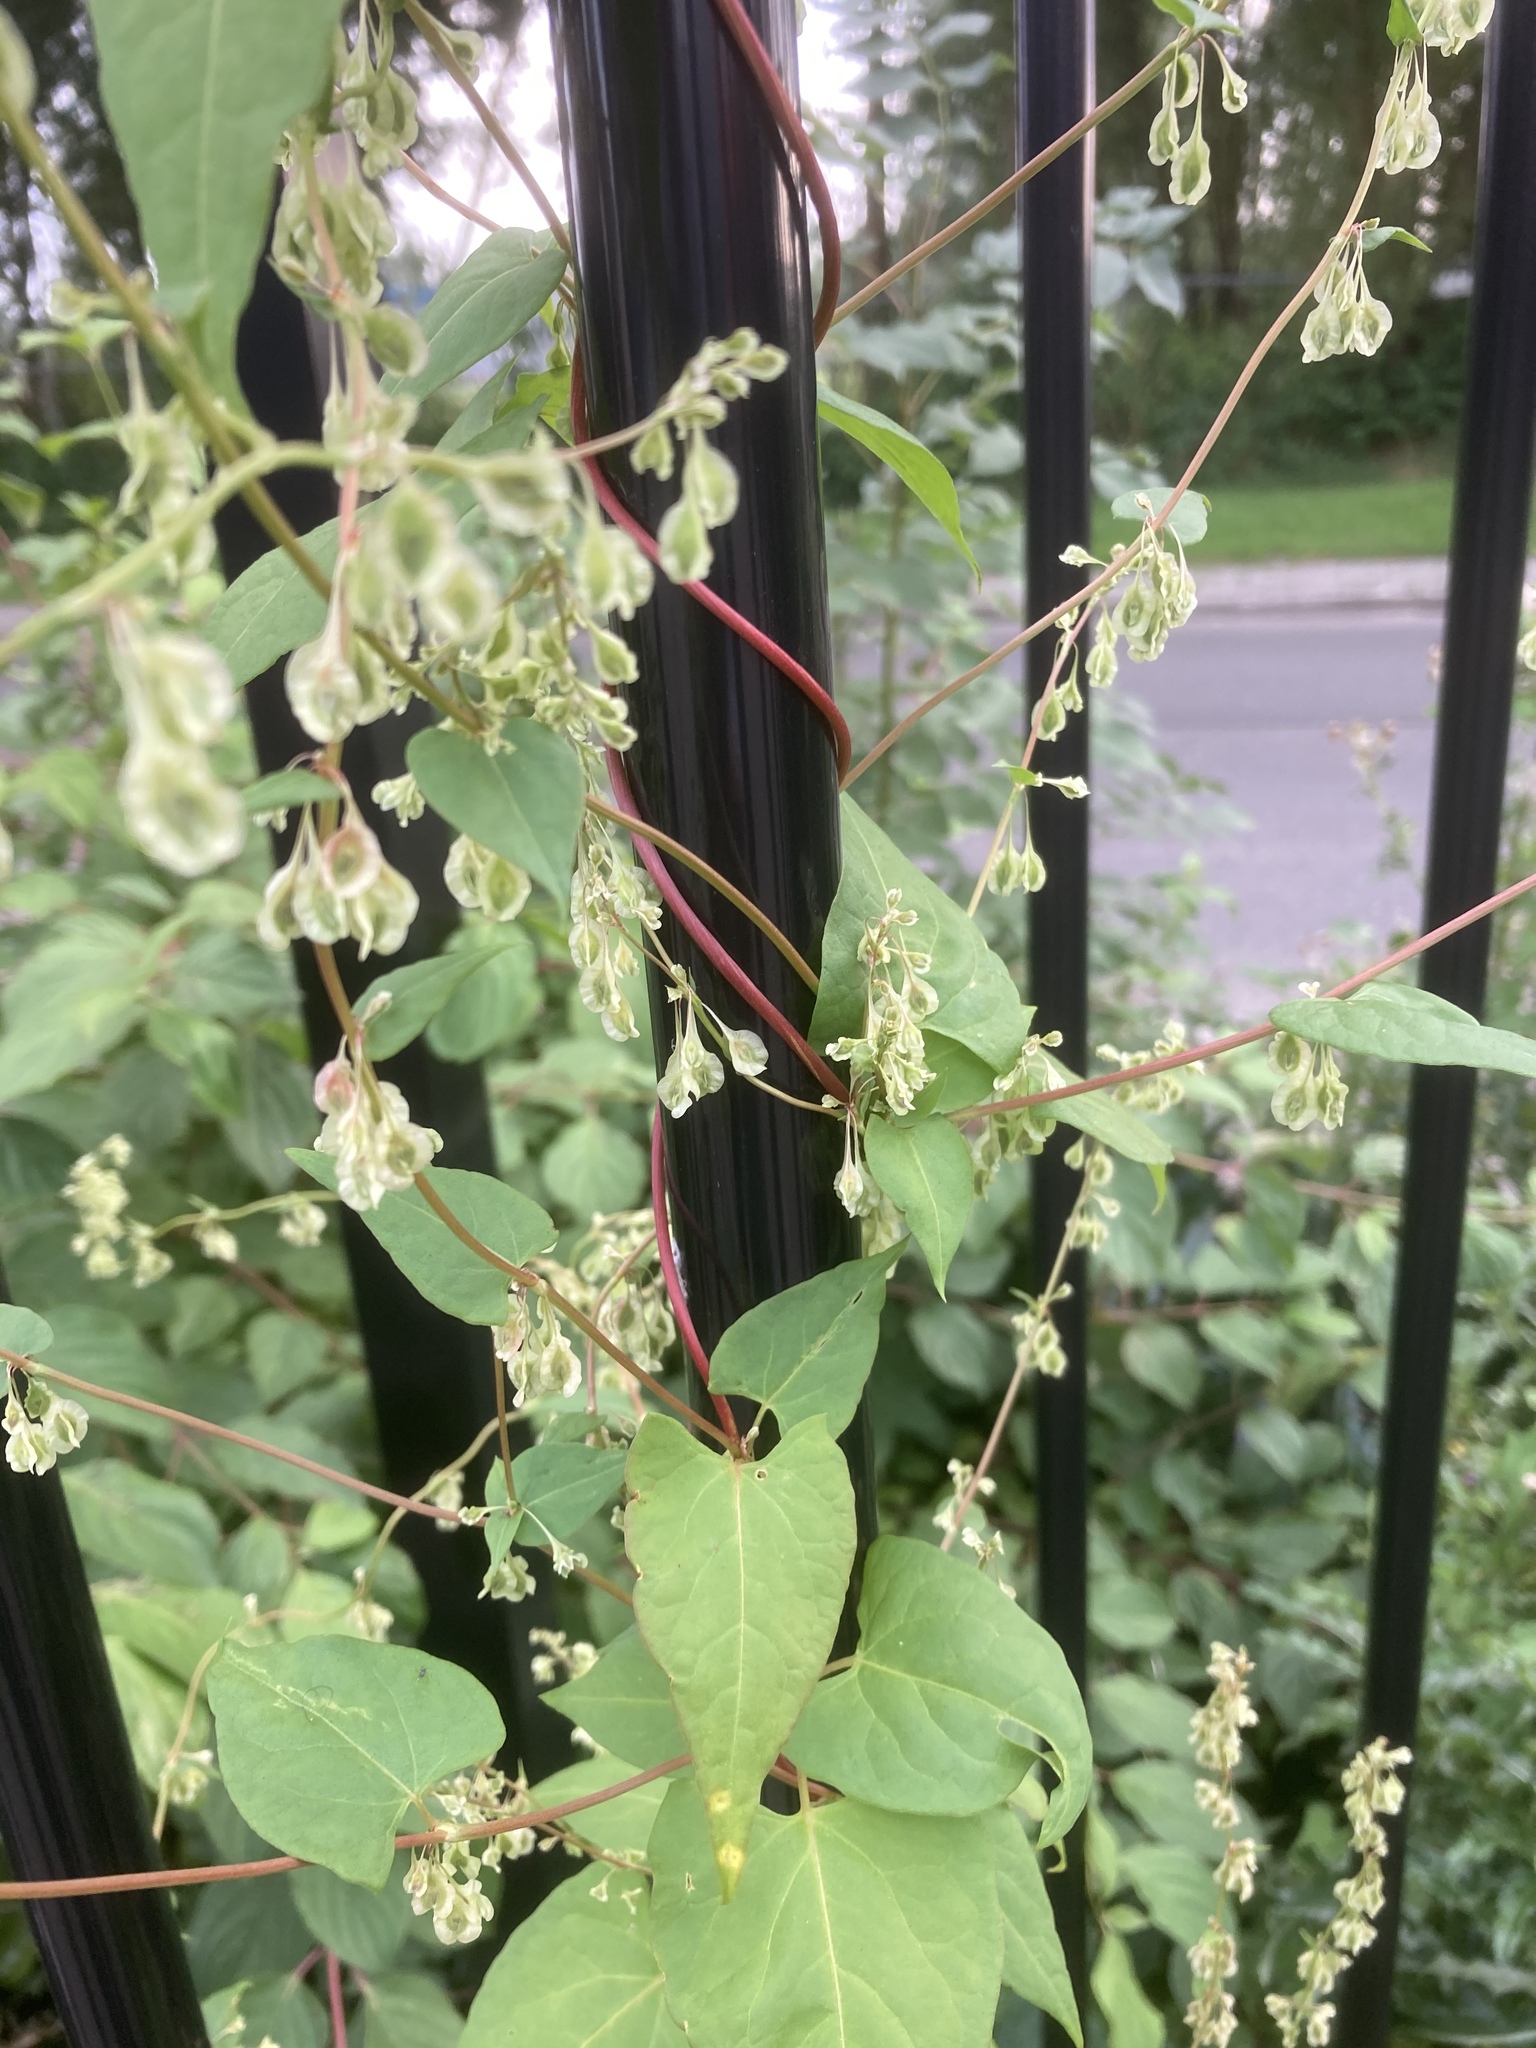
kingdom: Plantae
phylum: Tracheophyta
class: Magnoliopsida
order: Caryophyllales
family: Polygonaceae
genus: Fallopia
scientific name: Fallopia dumetorum
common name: Copse-bindweed
